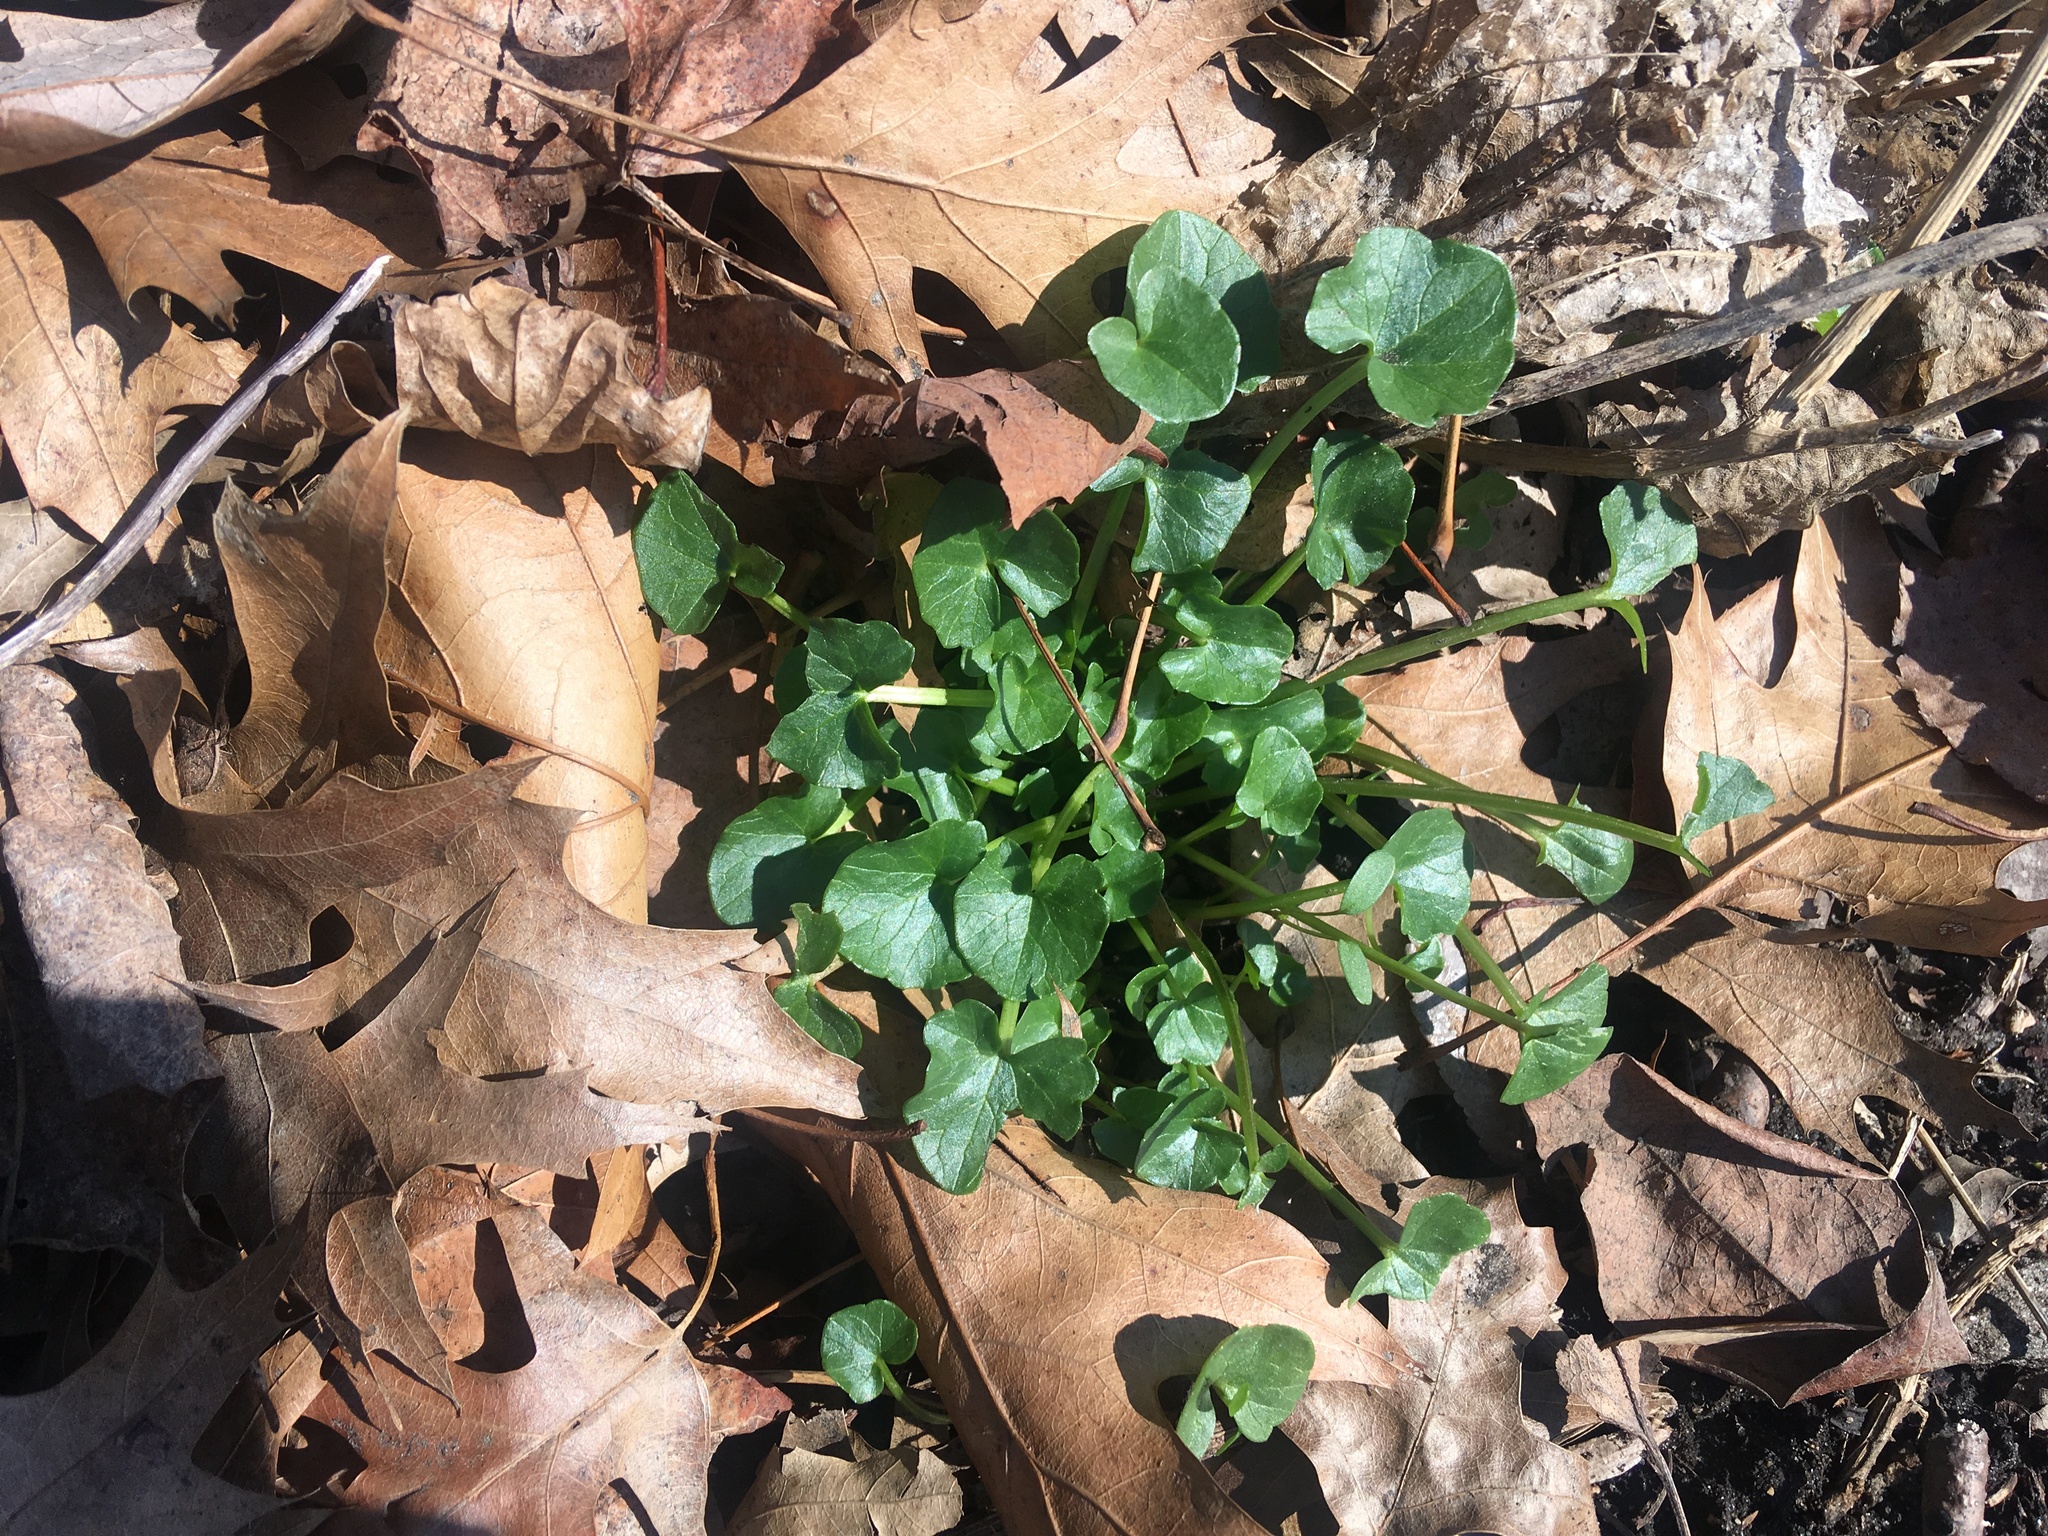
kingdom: Plantae
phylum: Tracheophyta
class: Magnoliopsida
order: Ranunculales
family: Ranunculaceae
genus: Ficaria
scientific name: Ficaria verna
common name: Lesser celandine
